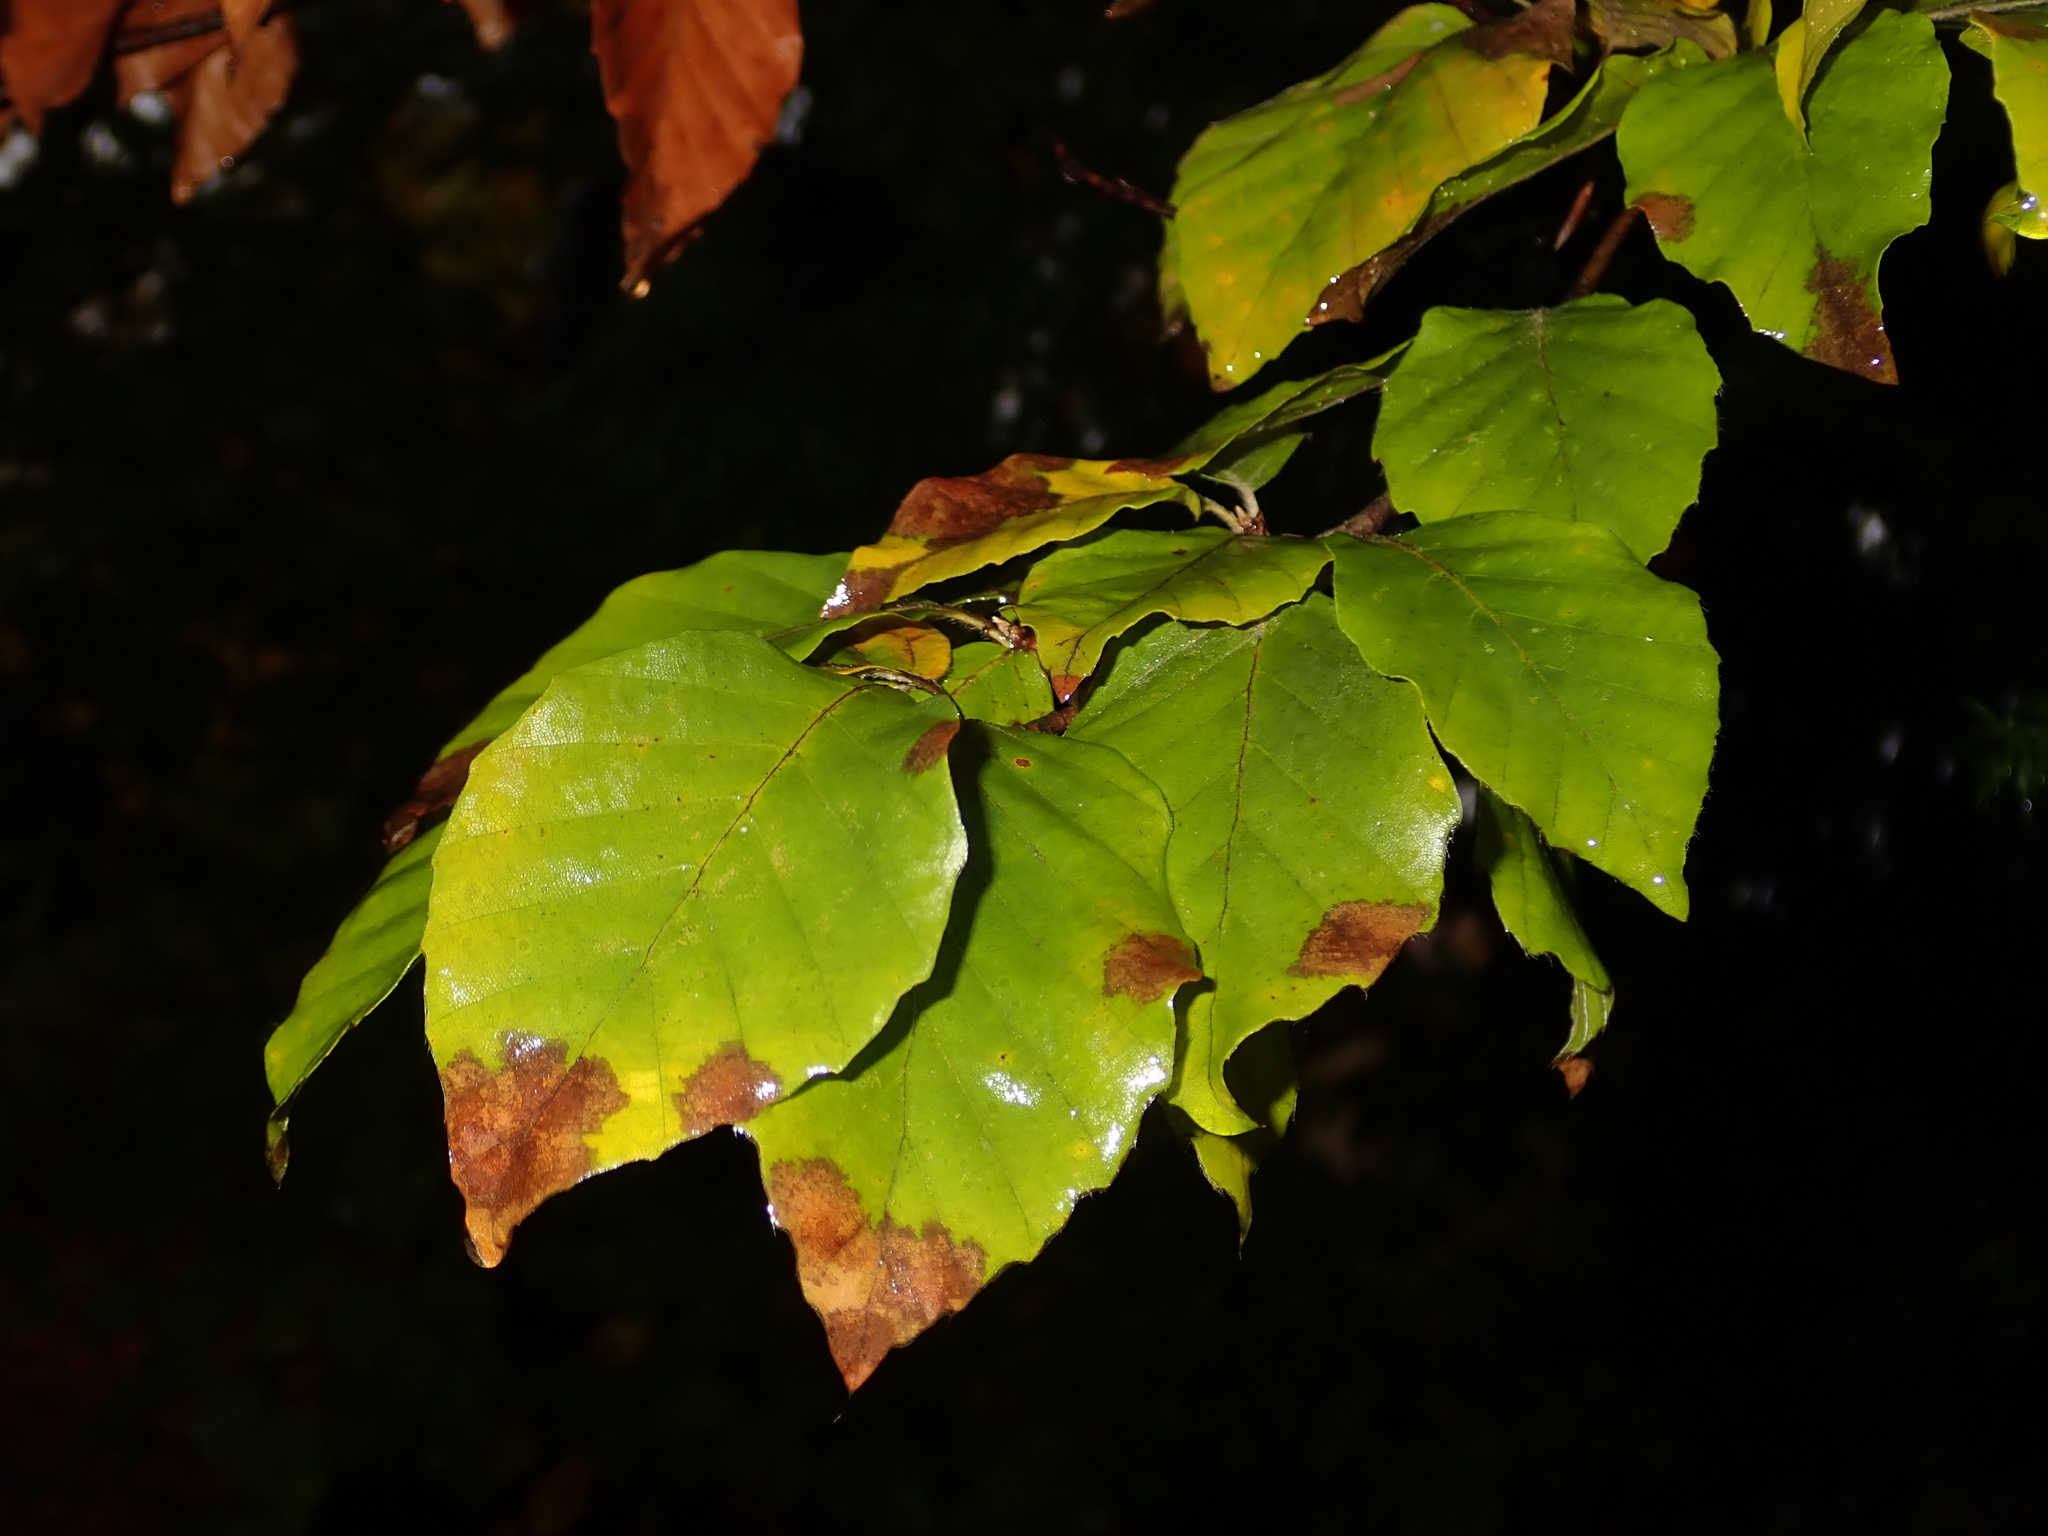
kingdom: Plantae
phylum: Tracheophyta
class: Magnoliopsida
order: Fagales
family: Fagaceae
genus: Fagus
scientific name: Fagus sylvatica
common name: Beech
